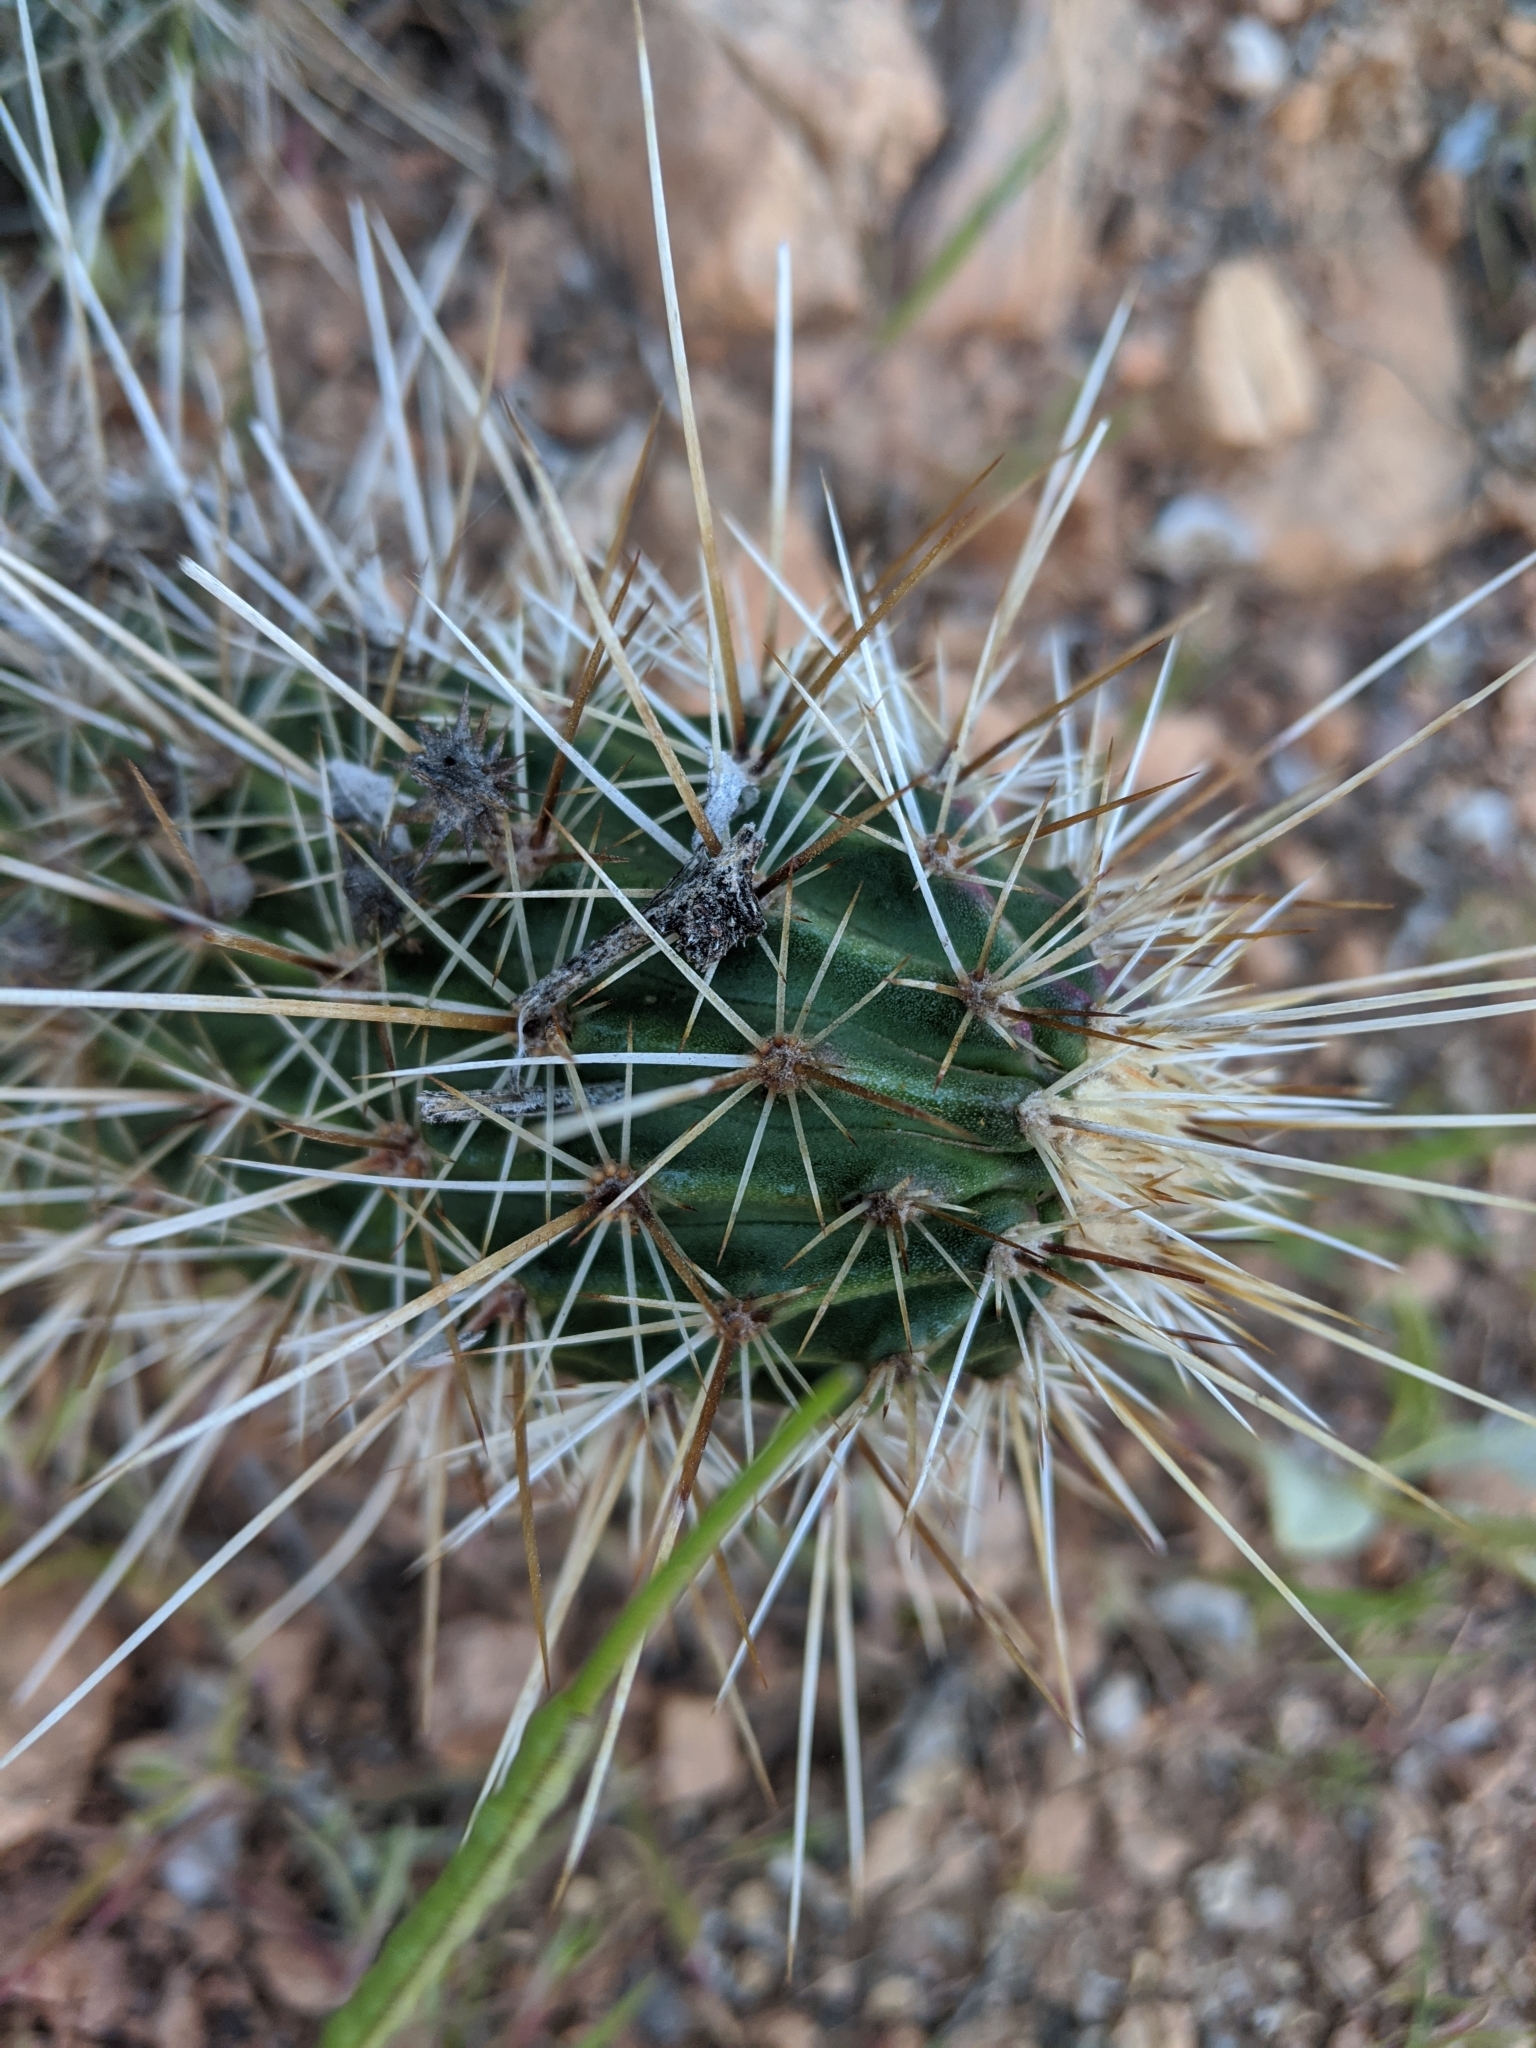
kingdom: Plantae
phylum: Tracheophyta
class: Magnoliopsida
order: Caryophyllales
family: Cactaceae
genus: Echinocereus
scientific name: Echinocereus engelmannii
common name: Engelmann's hedgehog cactus
